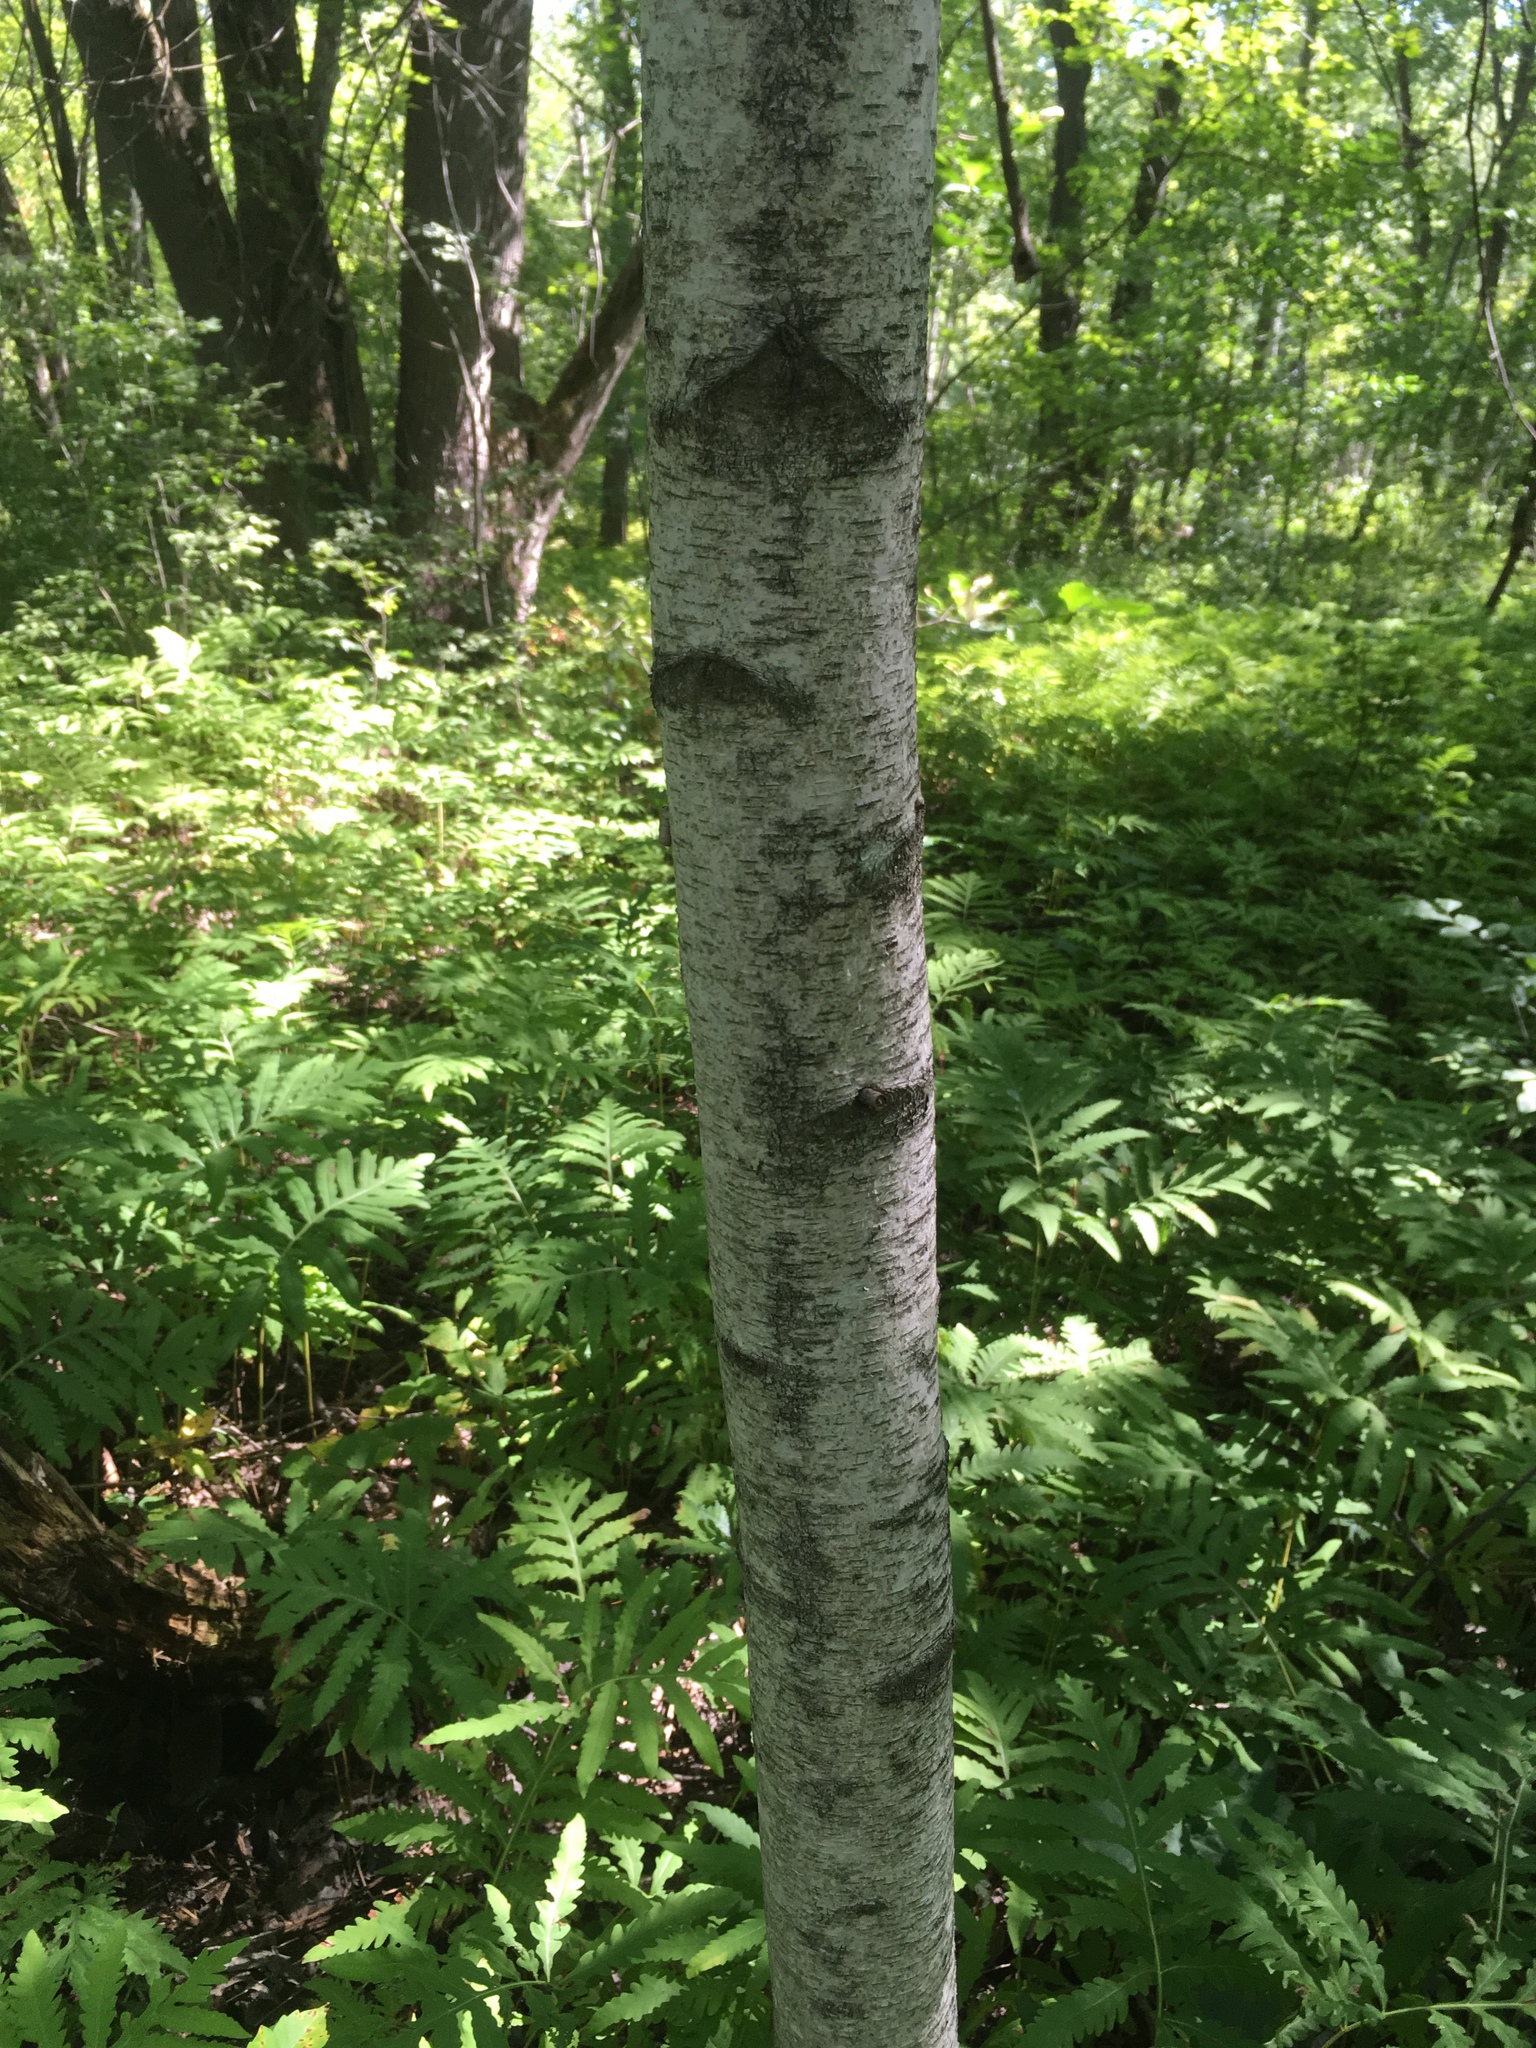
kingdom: Plantae
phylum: Tracheophyta
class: Magnoliopsida
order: Fagales
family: Betulaceae
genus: Betula
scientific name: Betula populifolia
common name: Fire birch
